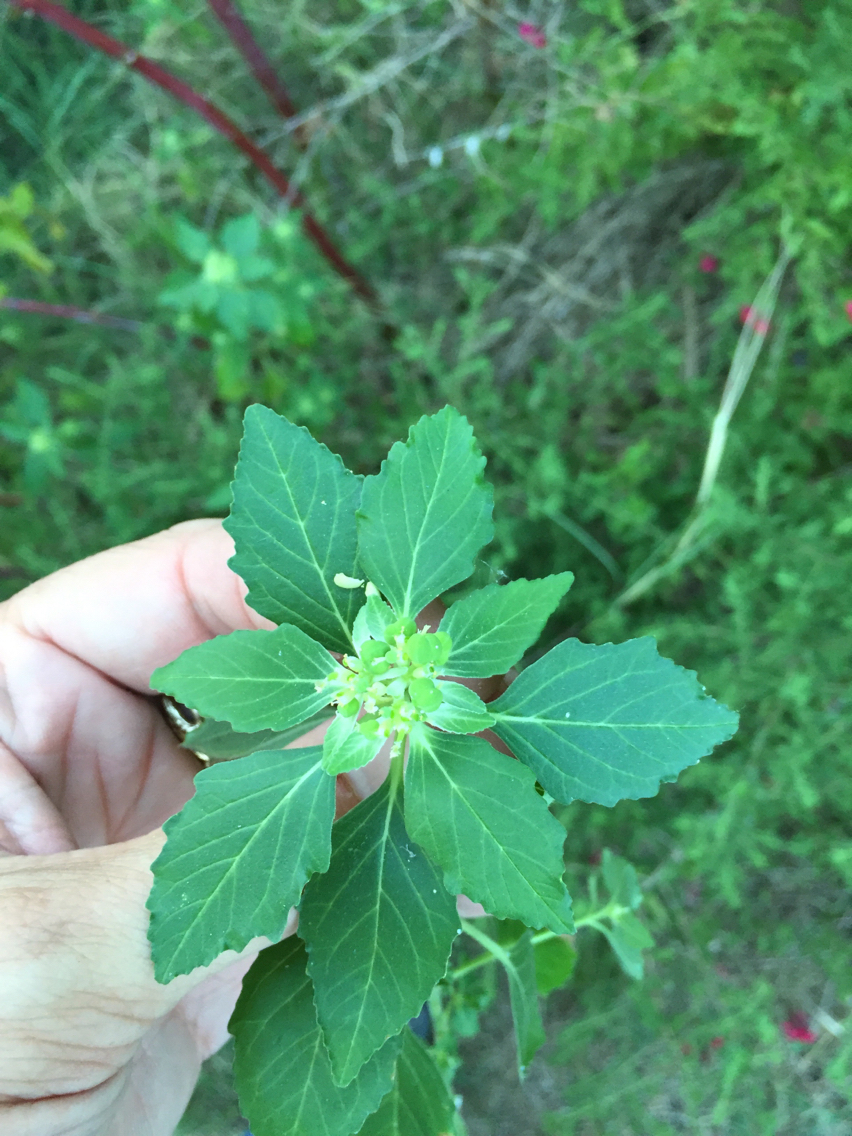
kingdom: Plantae
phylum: Tracheophyta
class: Magnoliopsida
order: Malpighiales
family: Euphorbiaceae
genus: Euphorbia
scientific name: Euphorbia dentata
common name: Dentate spurge
